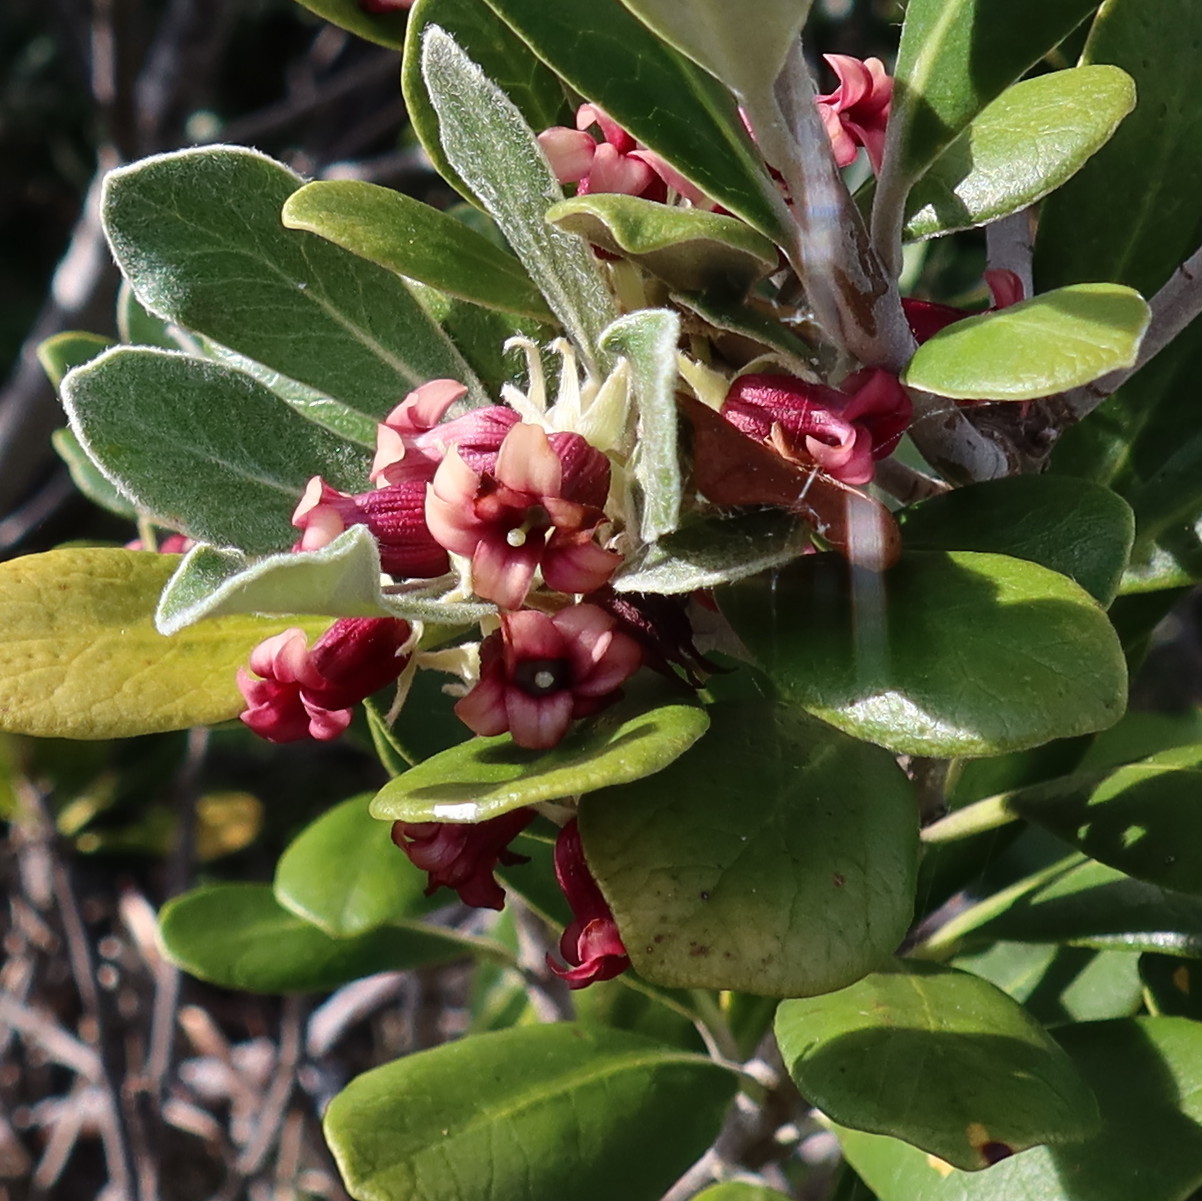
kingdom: Plantae
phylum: Tracheophyta
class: Magnoliopsida
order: Apiales
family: Pittosporaceae
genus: Pittosporum
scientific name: Pittosporum crassifolium
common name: Karo
